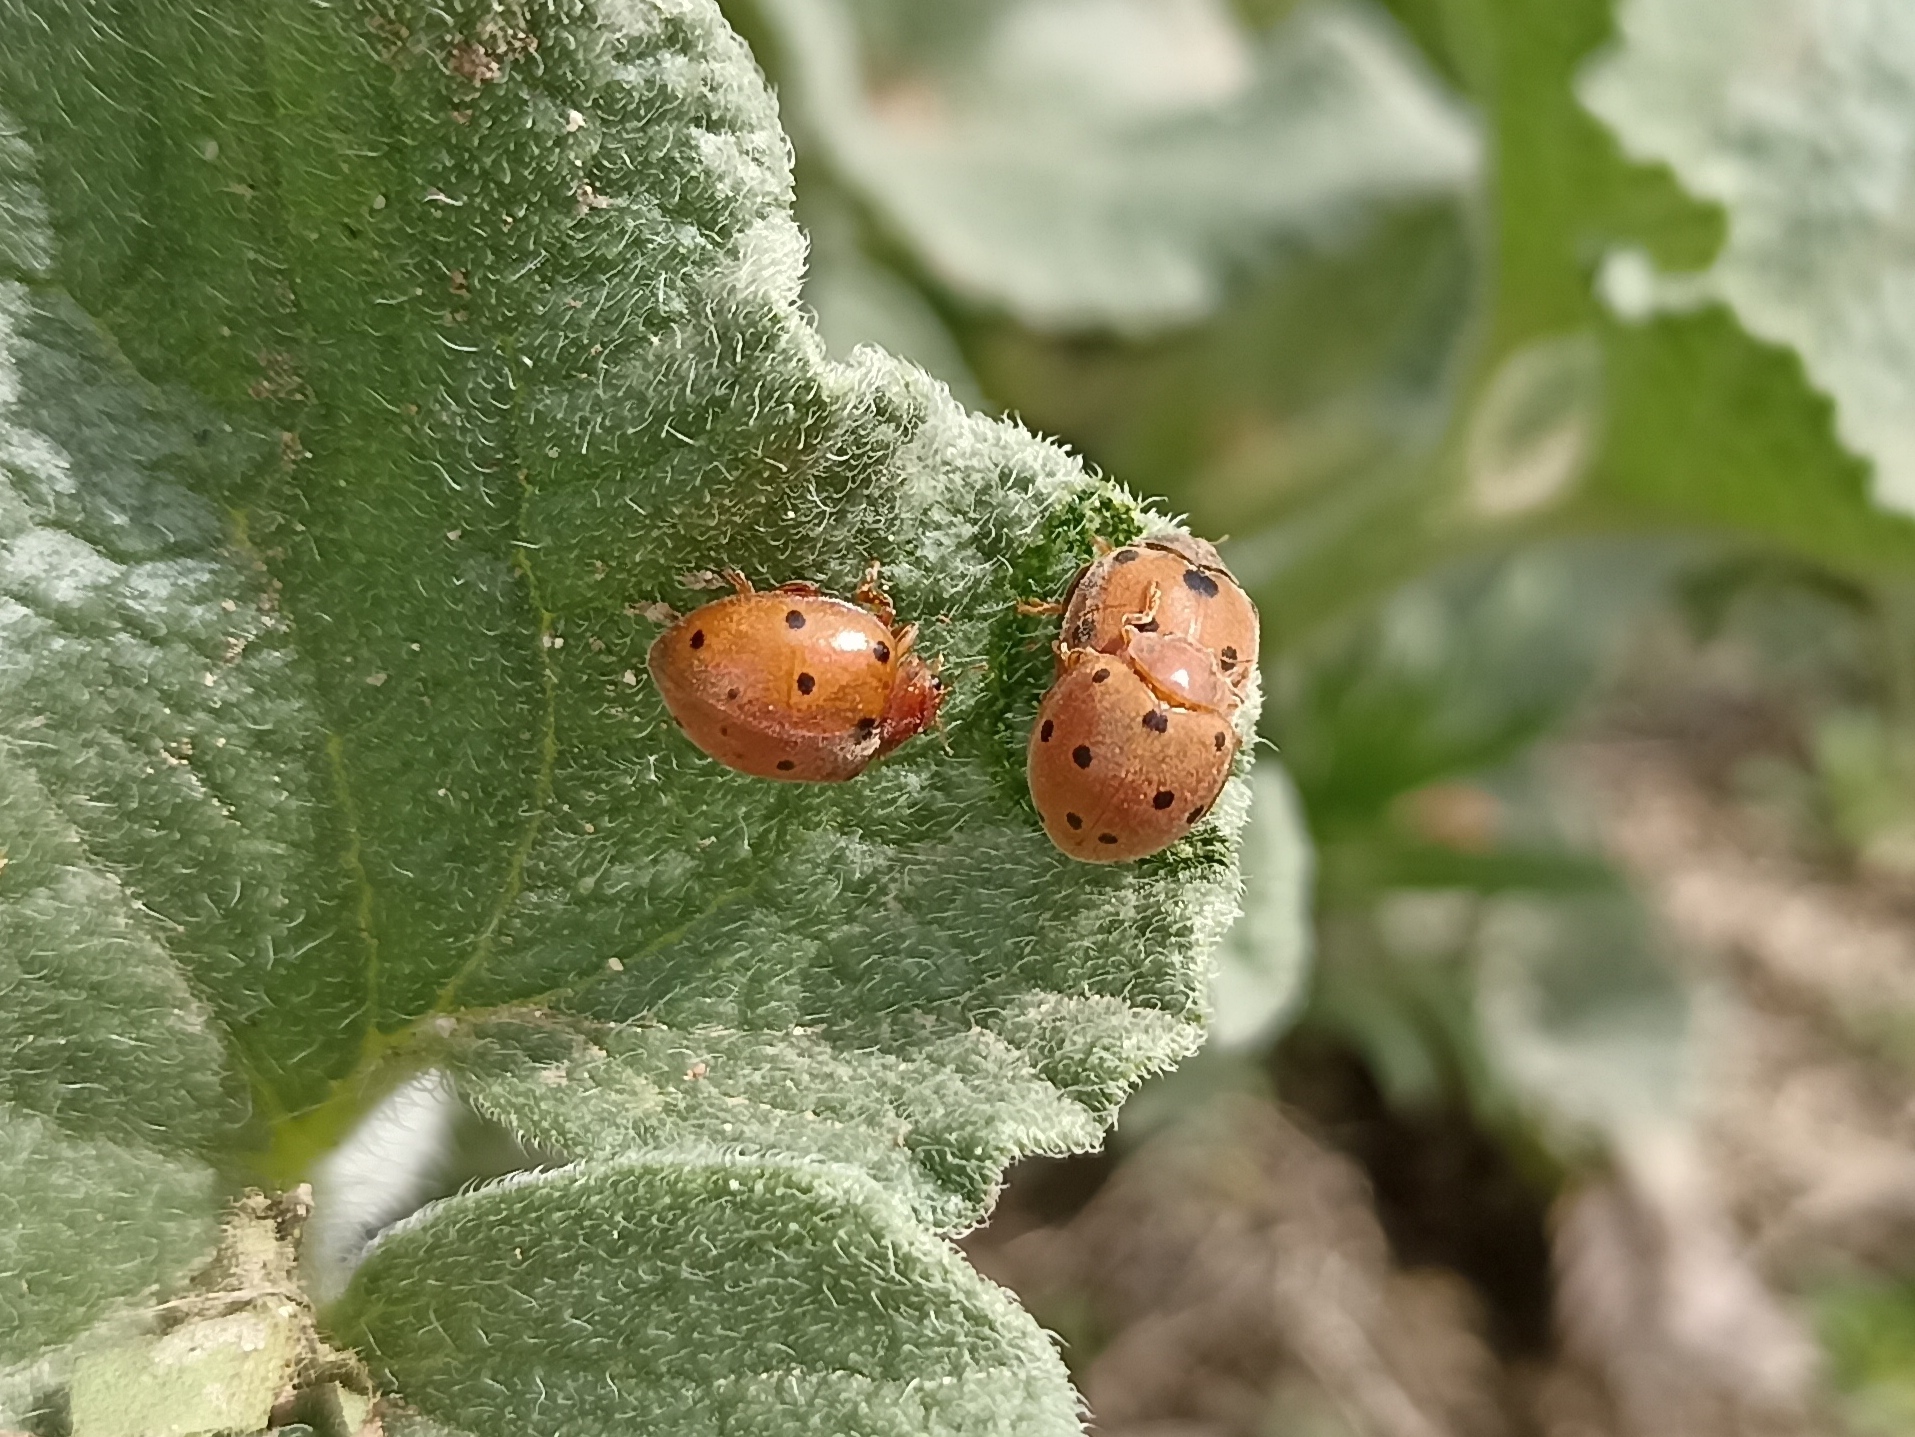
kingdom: Animalia
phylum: Arthropoda
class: Insecta
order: Coleoptera
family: Coccinellidae
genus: Henosepilachna
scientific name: Henosepilachna argus
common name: Bryony ladybird
